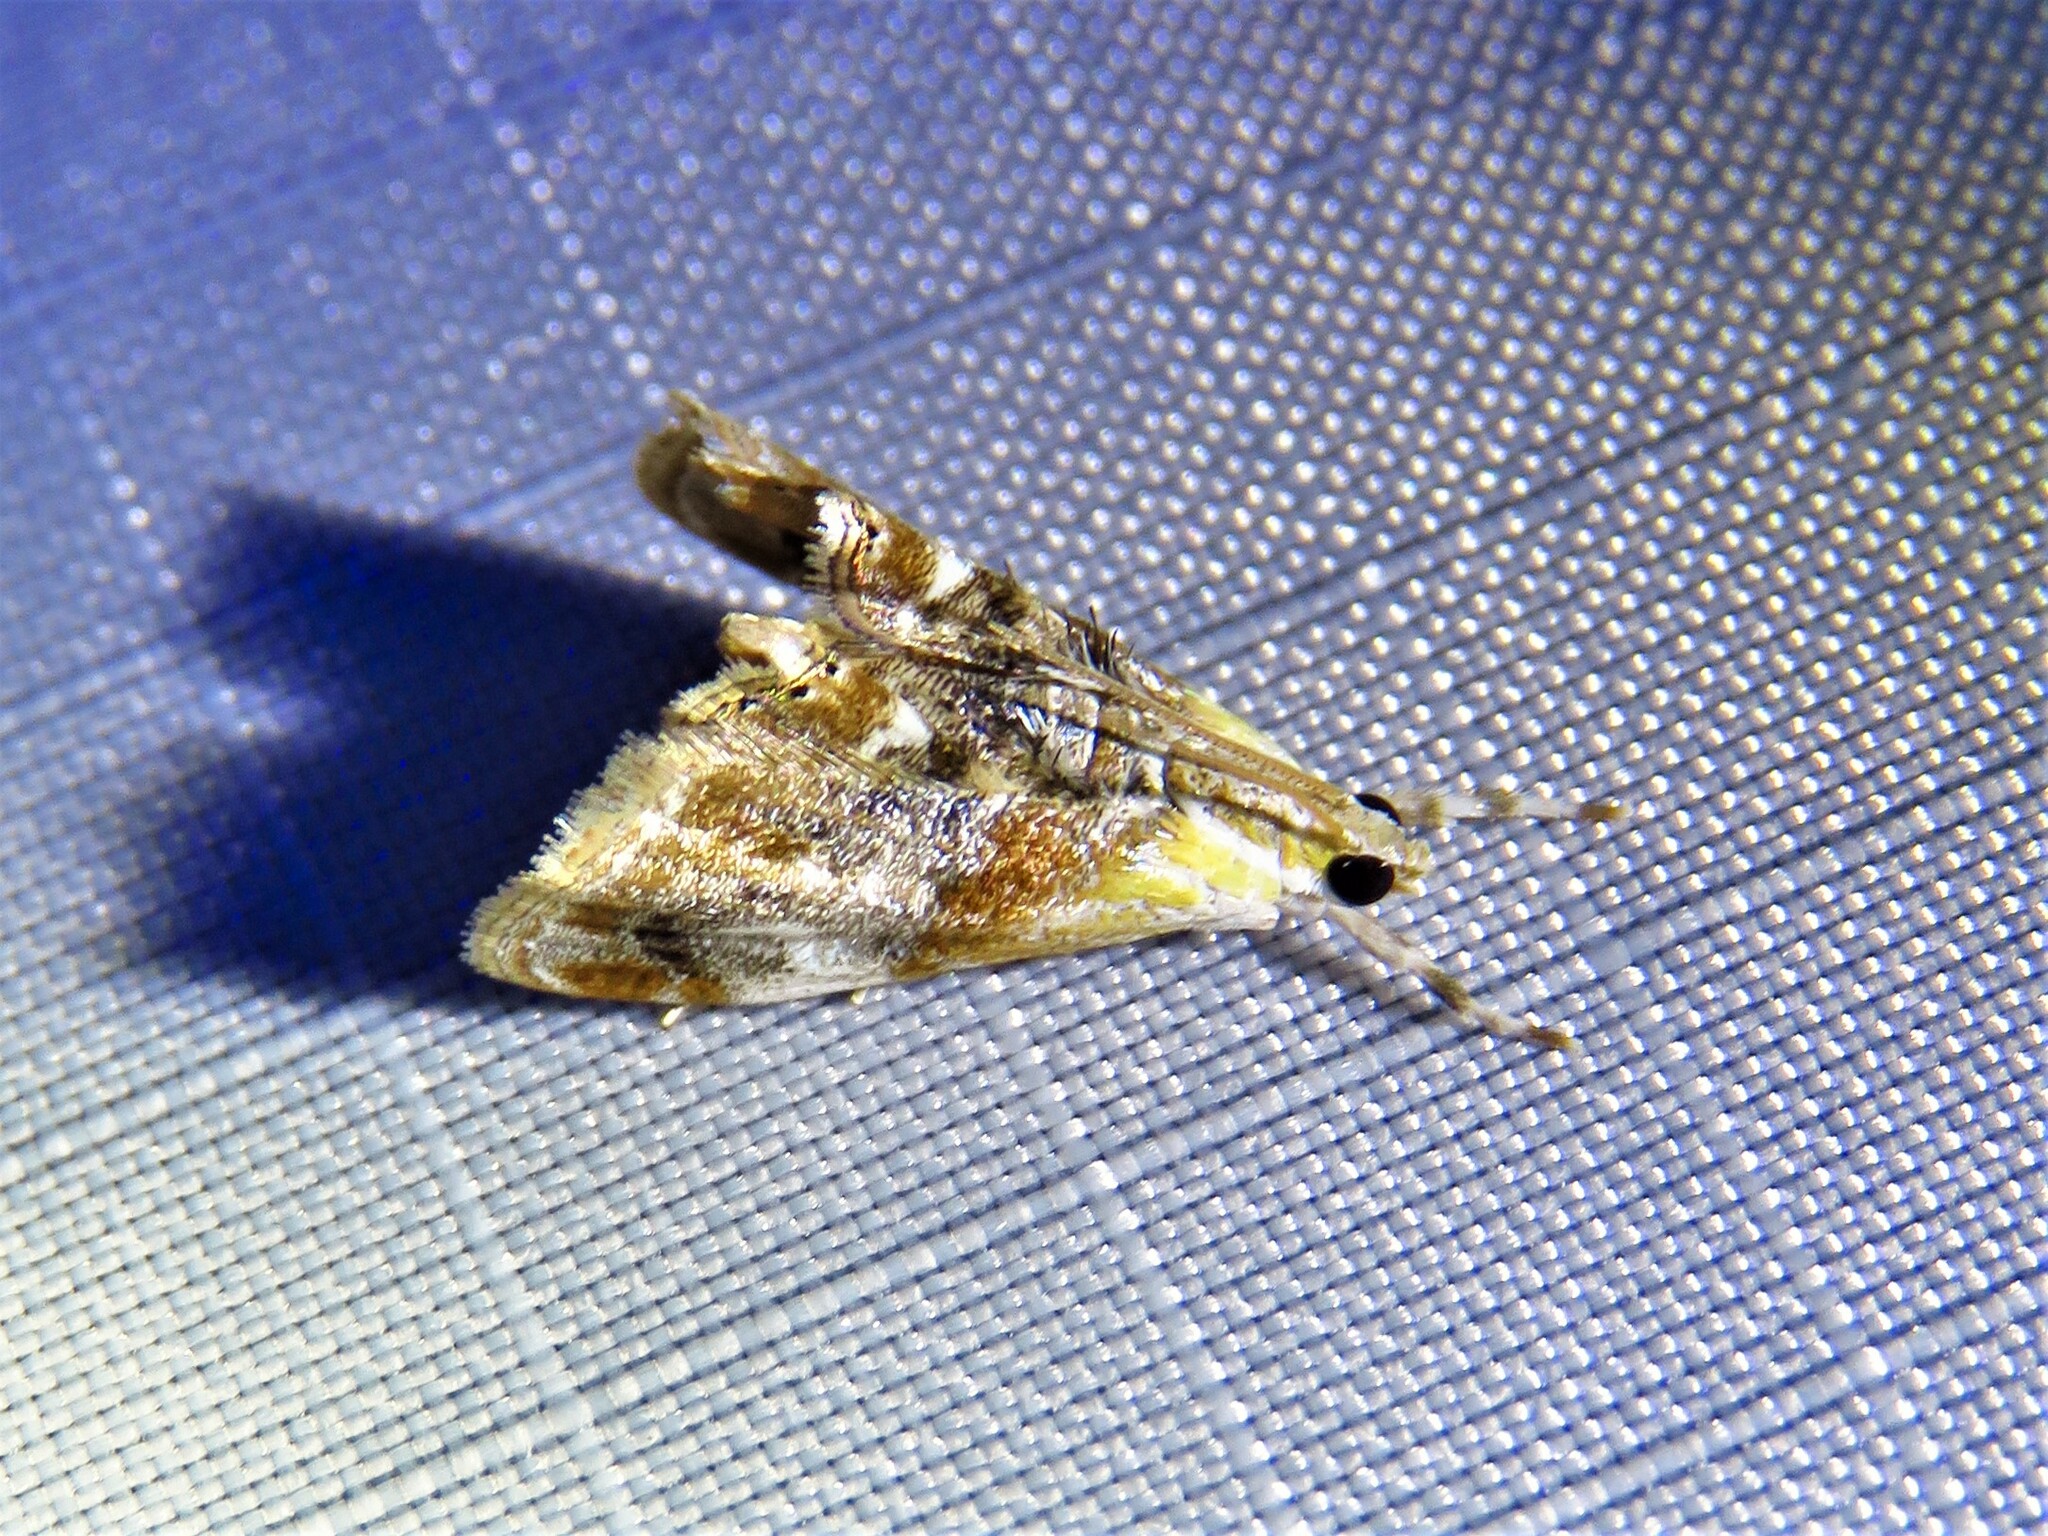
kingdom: Animalia
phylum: Arthropoda
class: Insecta
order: Lepidoptera
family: Crambidae
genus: Dicymolomia
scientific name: Dicymolomia julianalis
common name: Julia's dicymolomia moth
